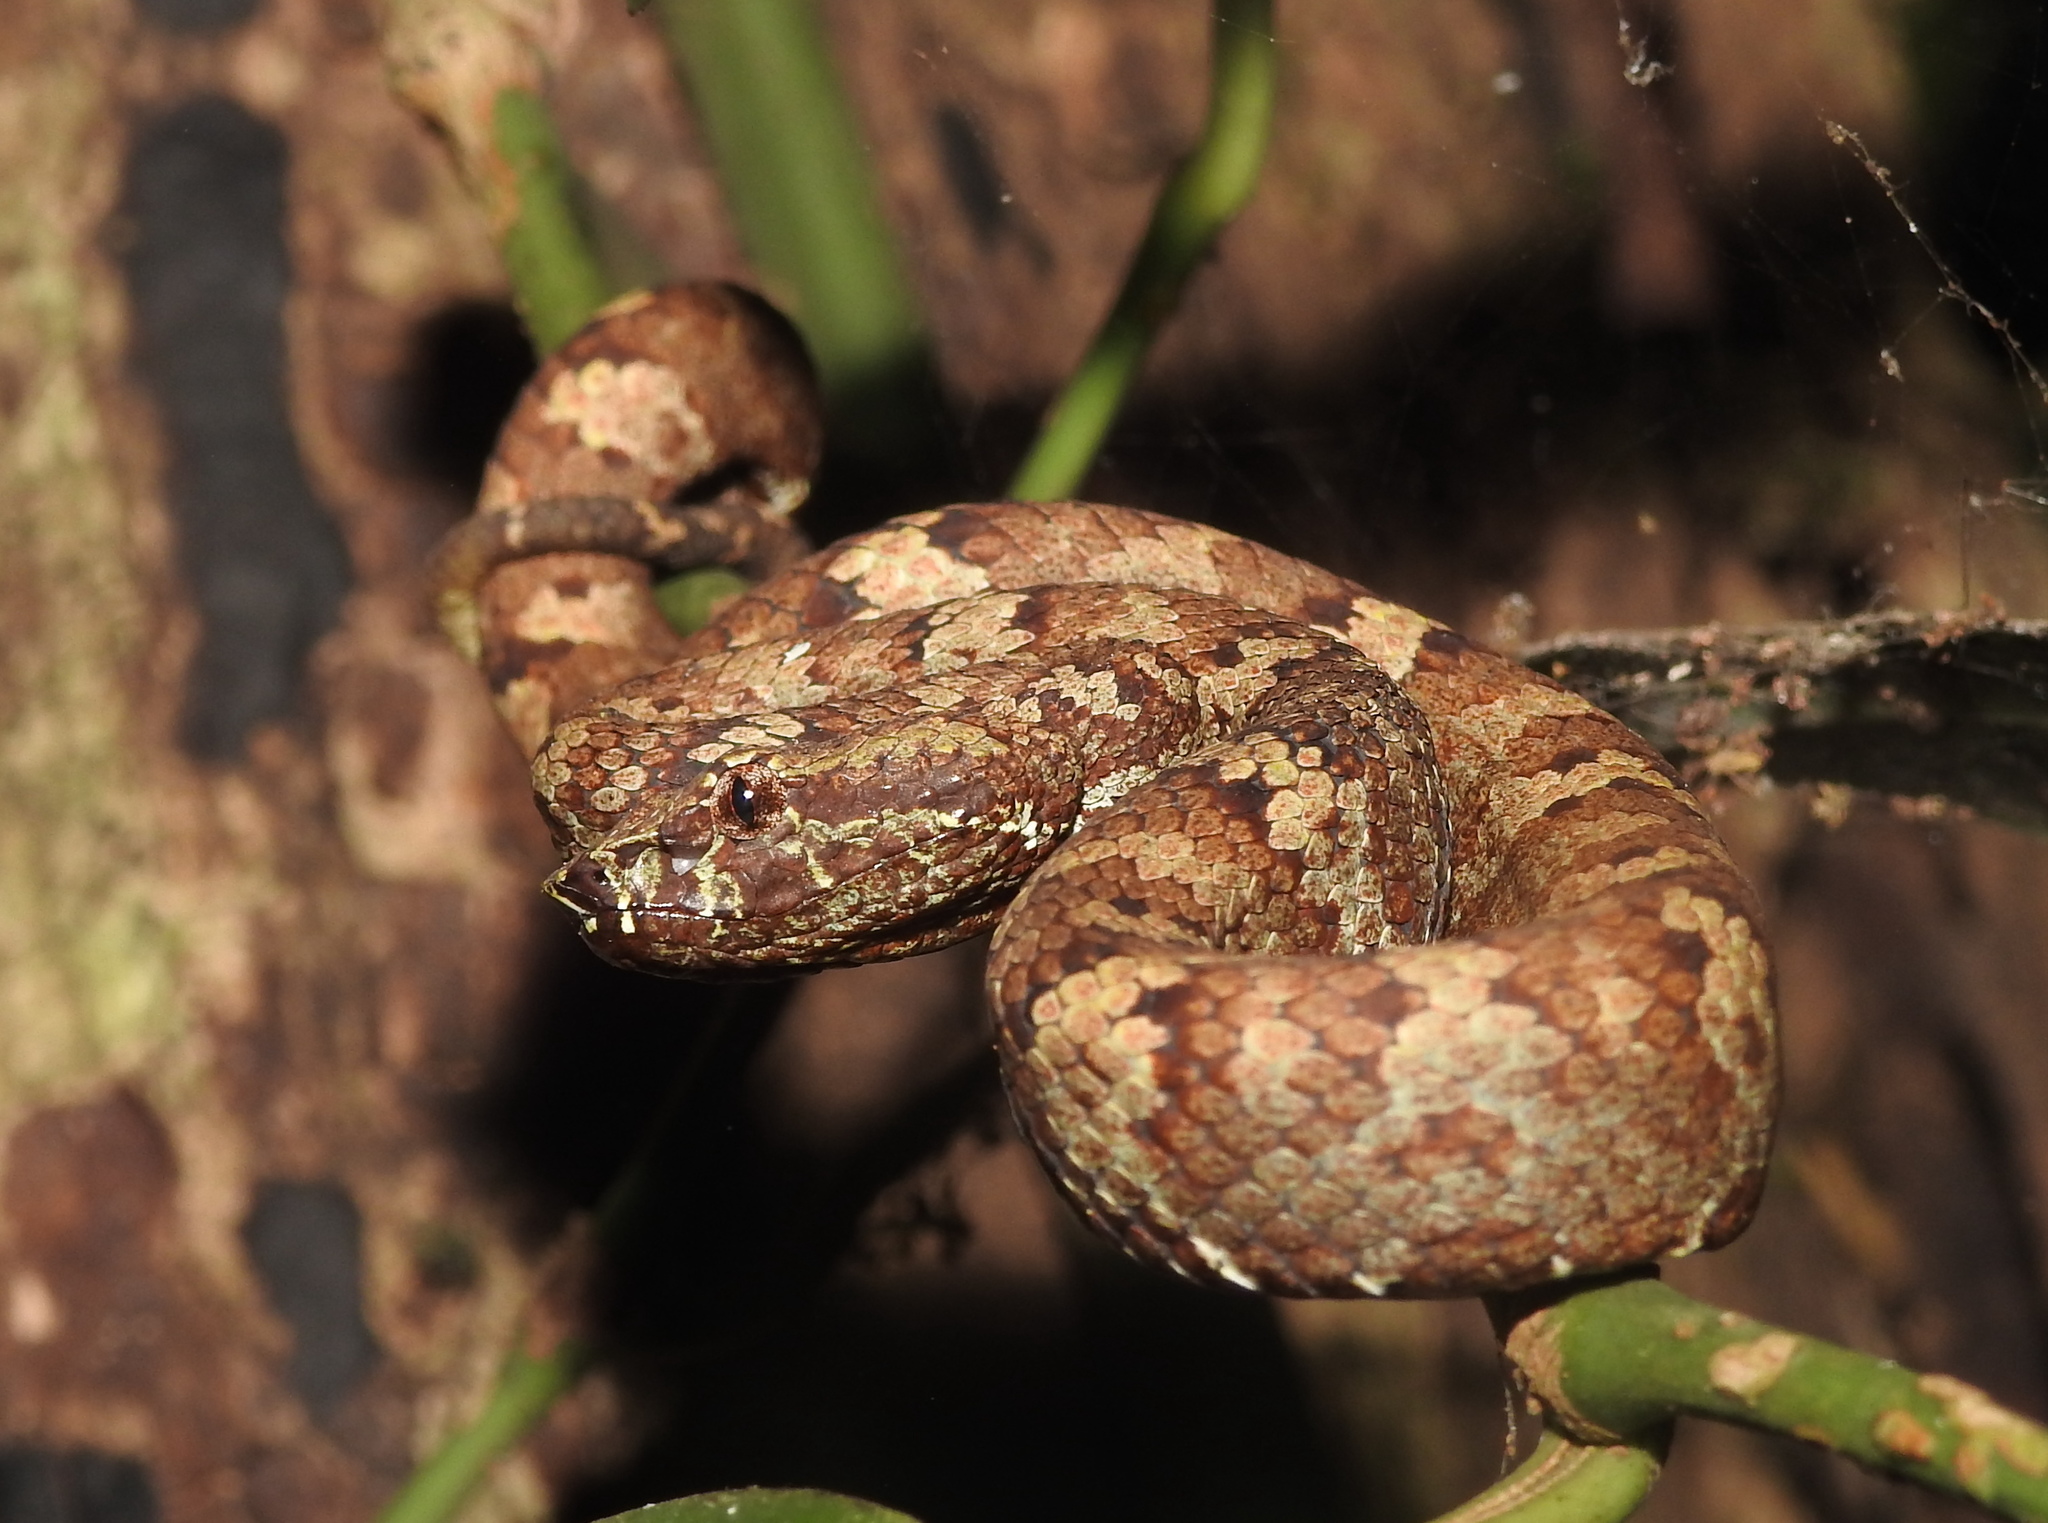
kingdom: Animalia
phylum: Chordata
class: Squamata
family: Viperidae
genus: Craspedocephalus
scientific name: Craspedocephalus malabaricus
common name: Malabarian pit viper
